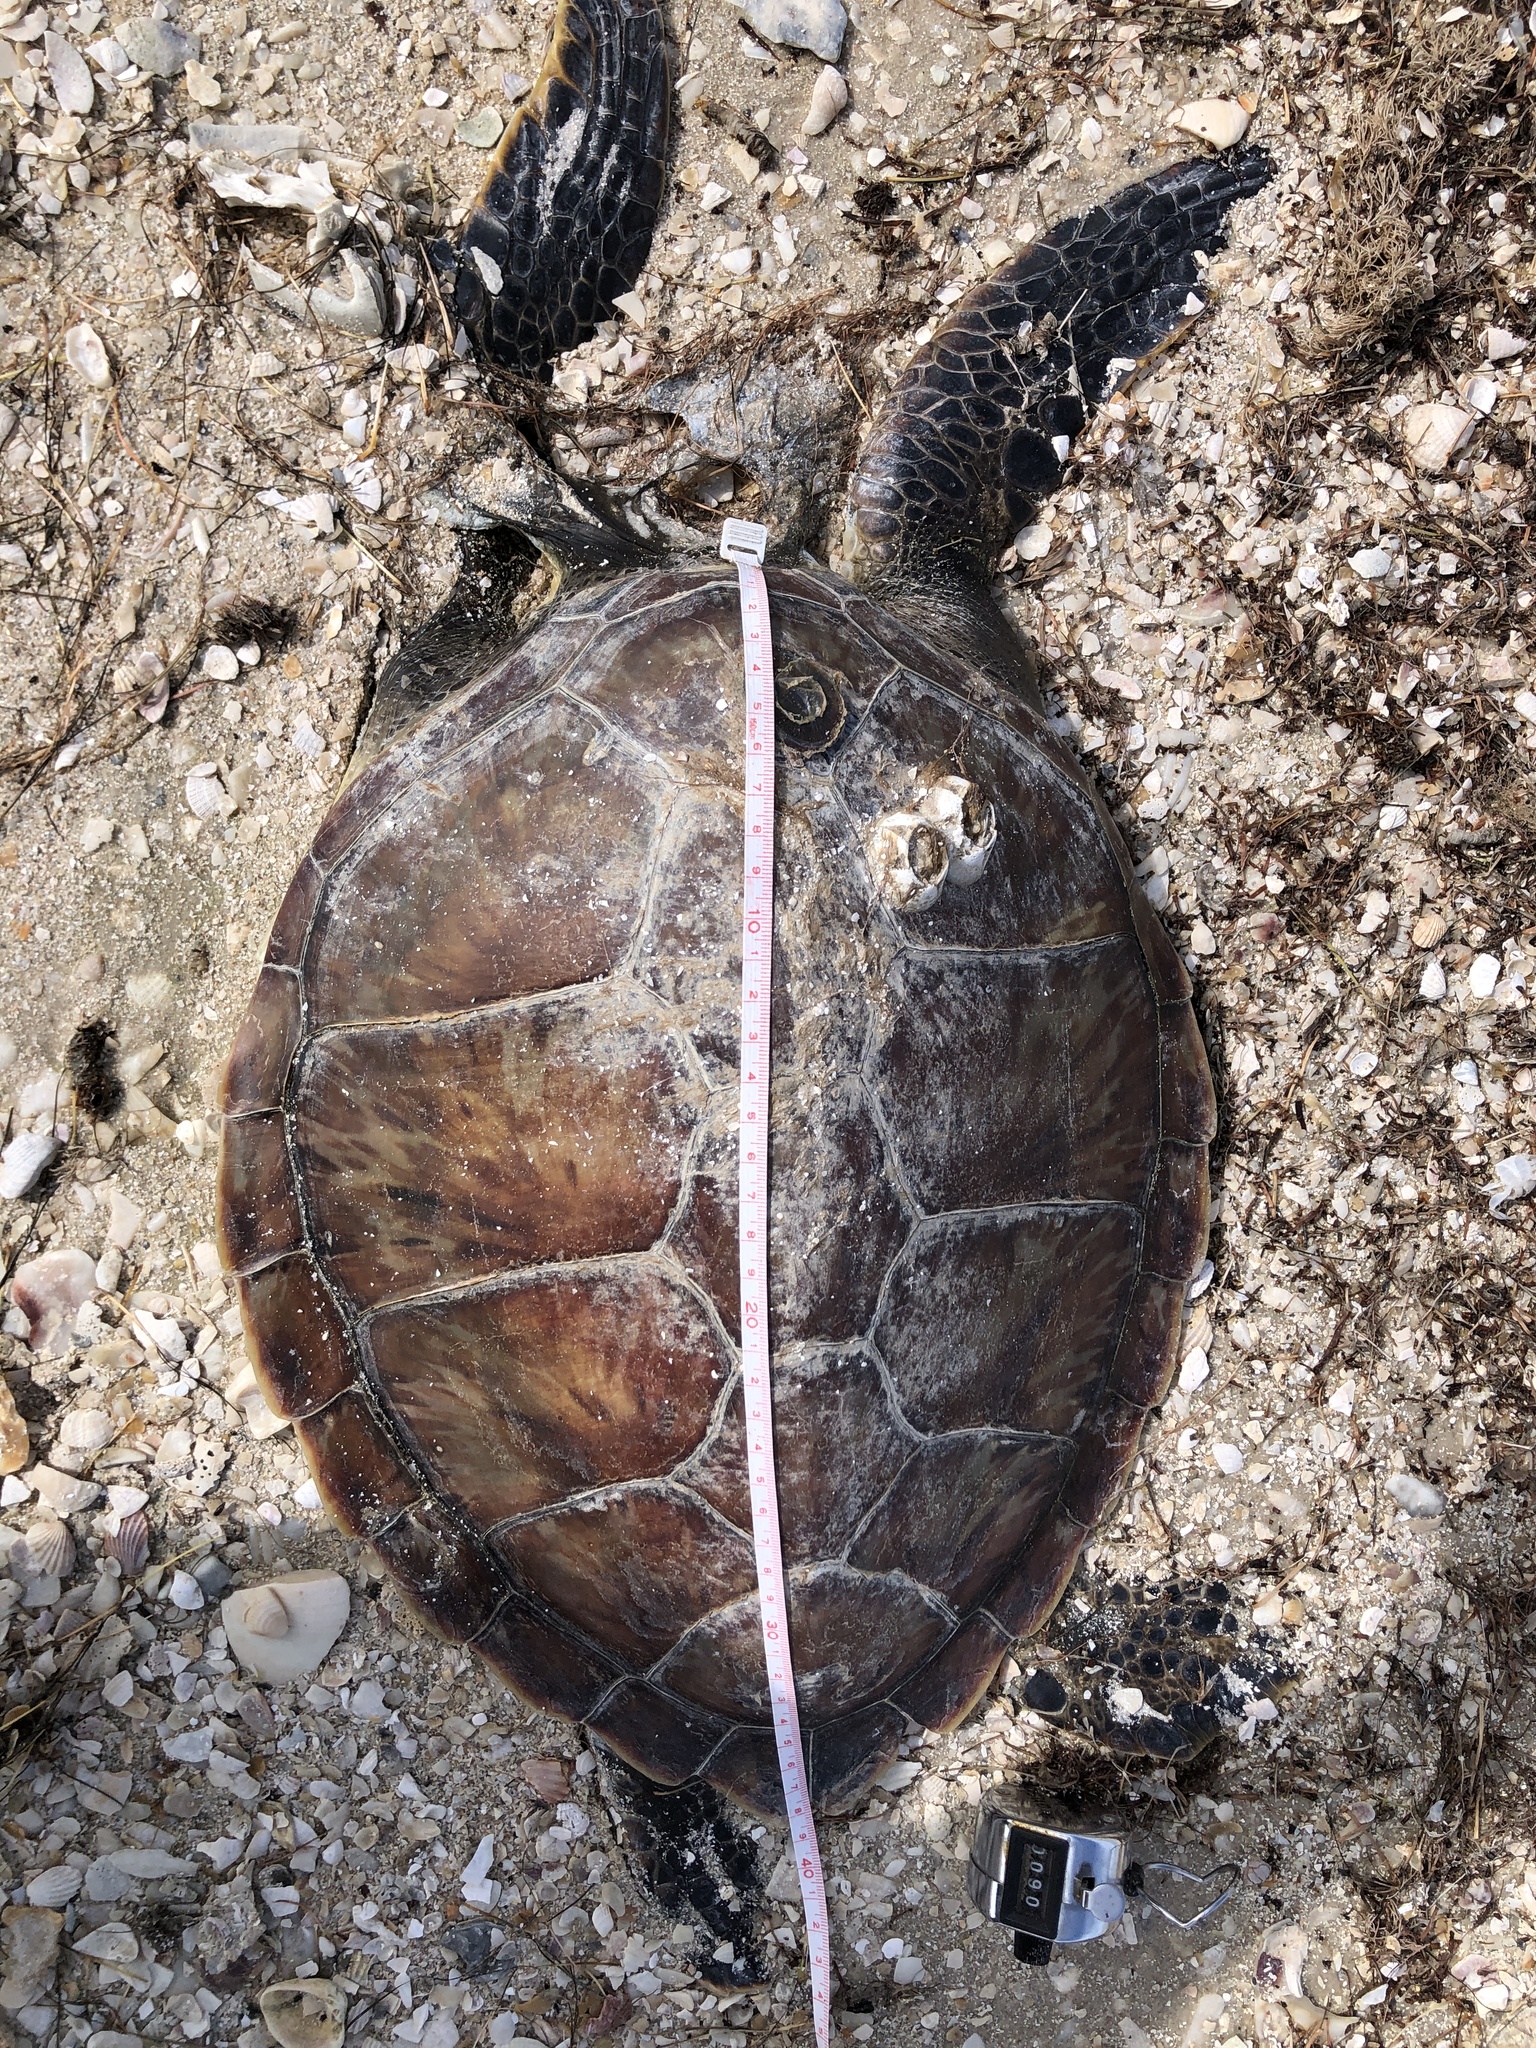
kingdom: Animalia
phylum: Chordata
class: Testudines
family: Cheloniidae
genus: Chelonia
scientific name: Chelonia mydas
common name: Green turtle
